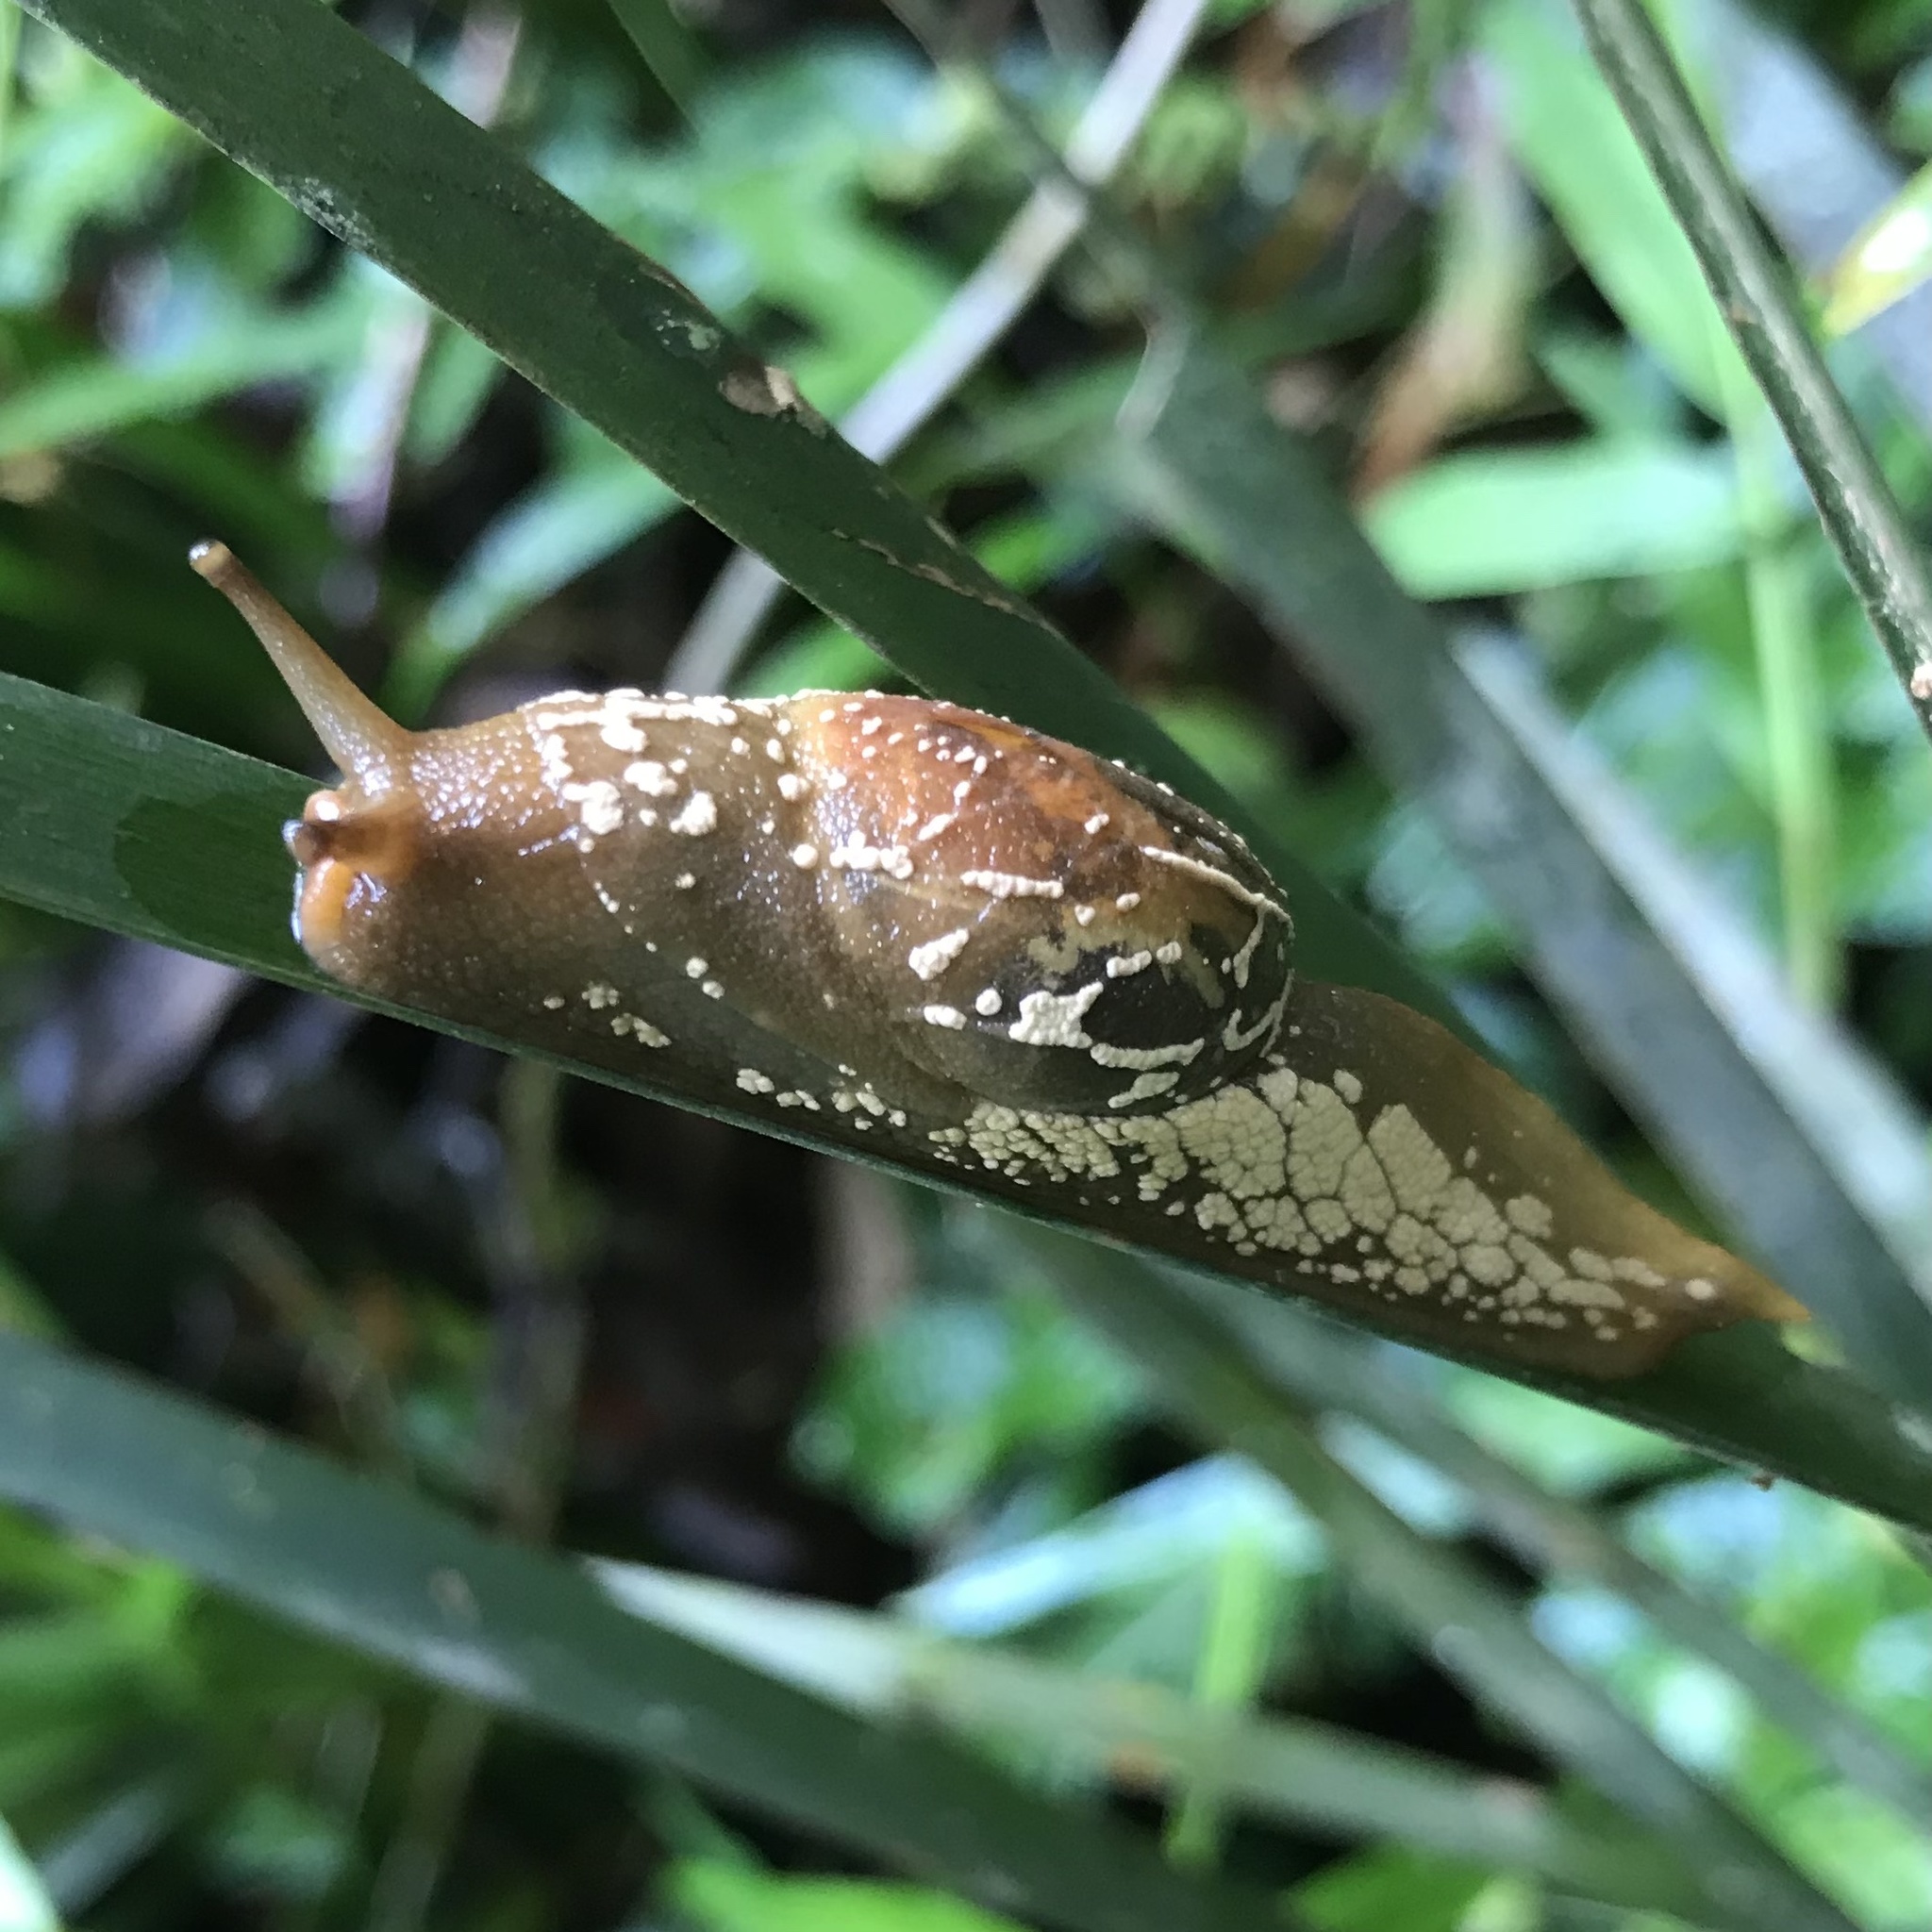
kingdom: Animalia
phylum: Mollusca
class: Gastropoda
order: Stylommatophora
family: Helicarionidae
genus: Cucullarion
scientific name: Cucullarion albimaculosus
